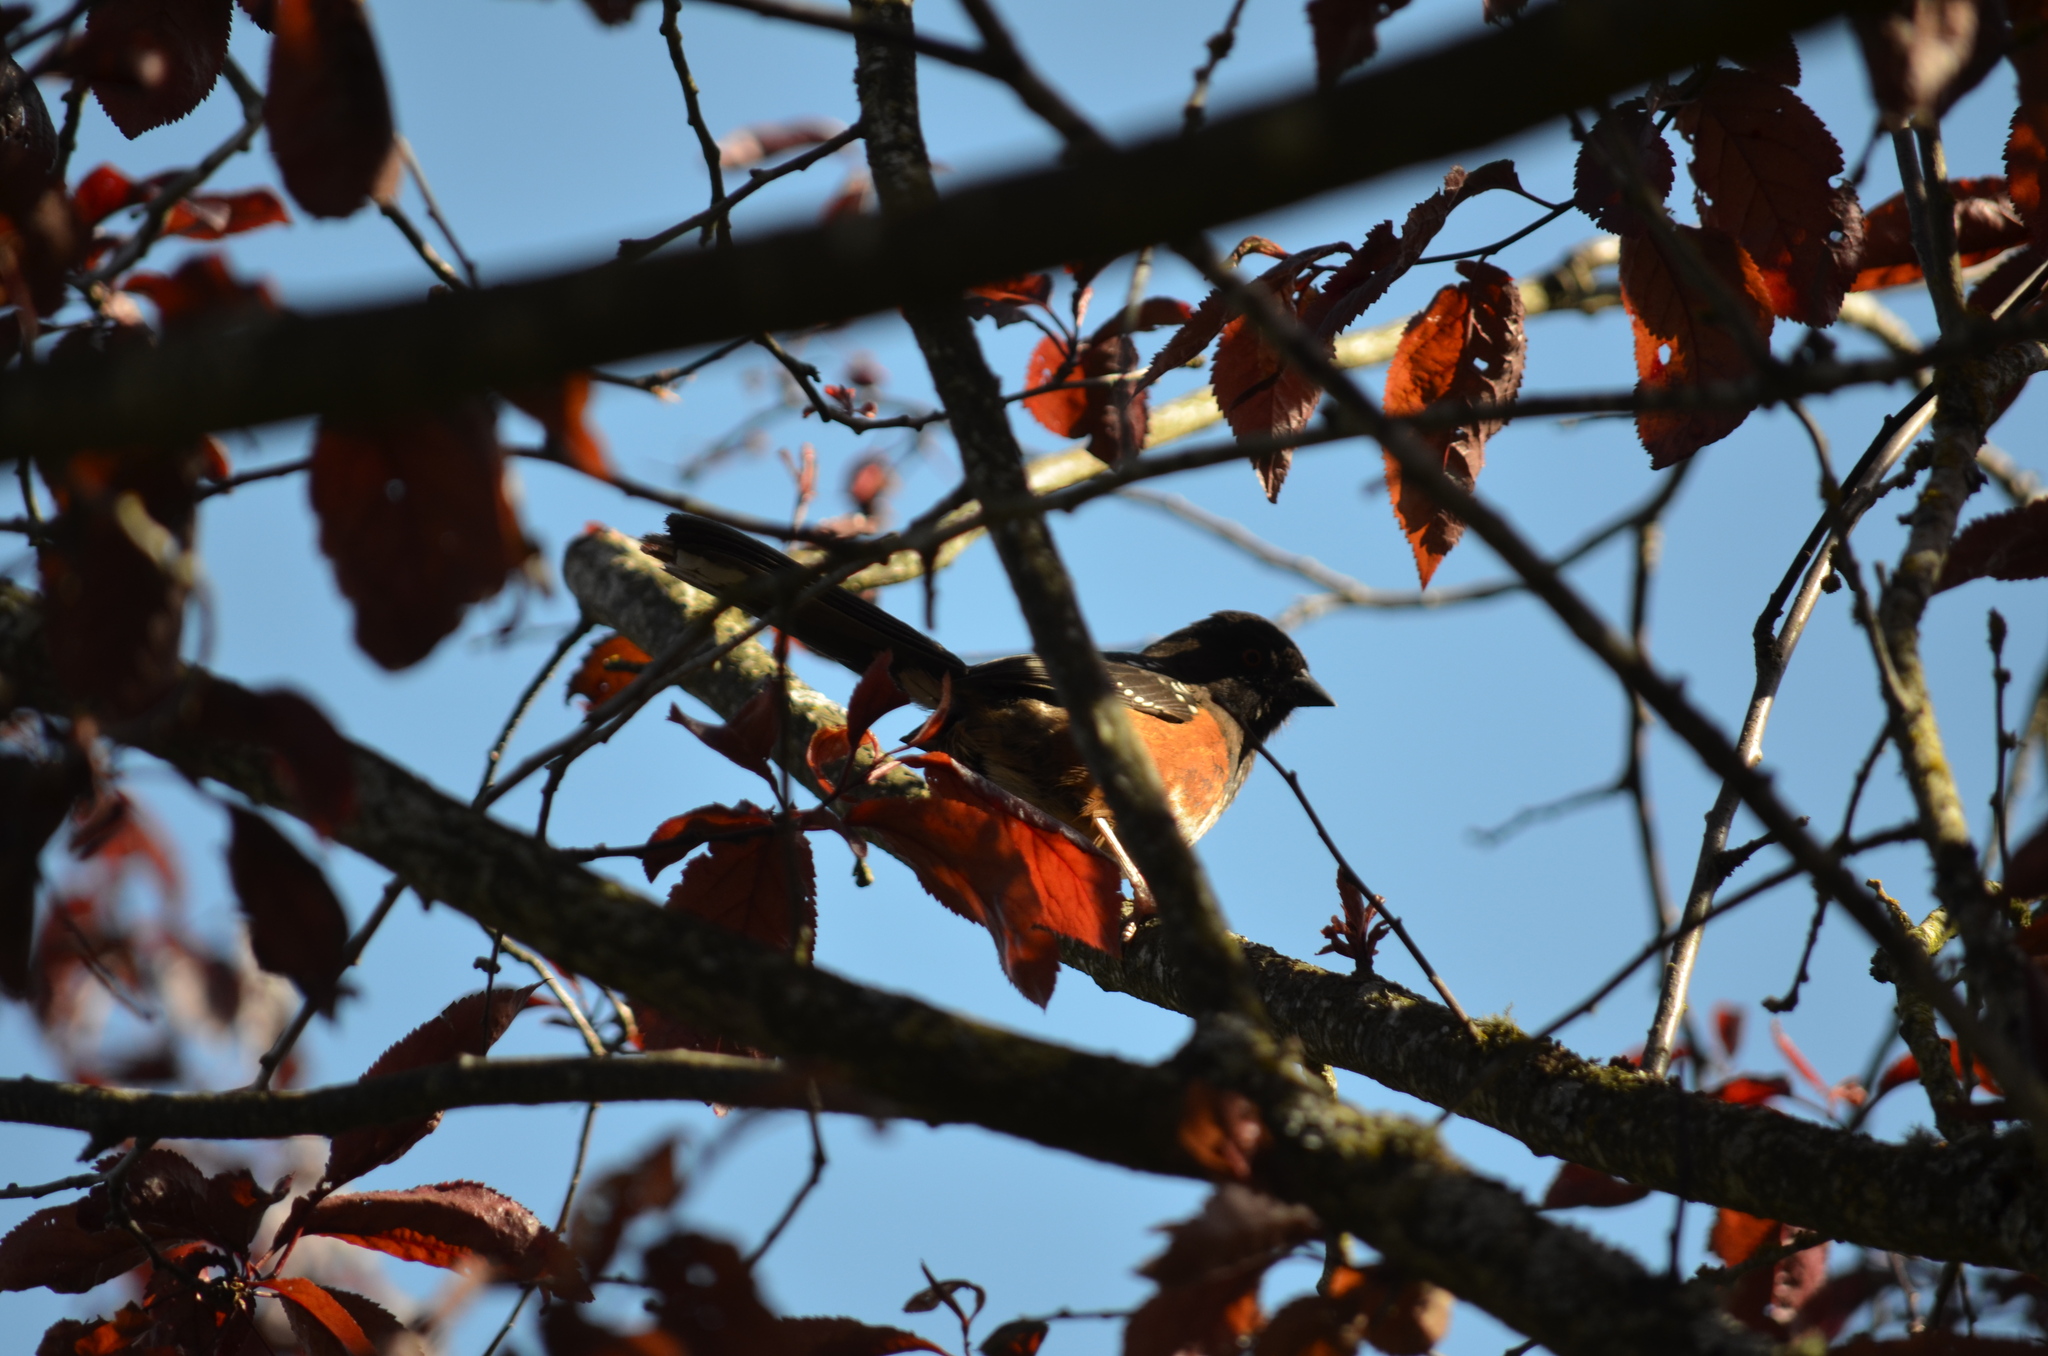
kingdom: Animalia
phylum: Chordata
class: Aves
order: Passeriformes
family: Passerellidae
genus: Pipilo
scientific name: Pipilo maculatus
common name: Spotted towhee
